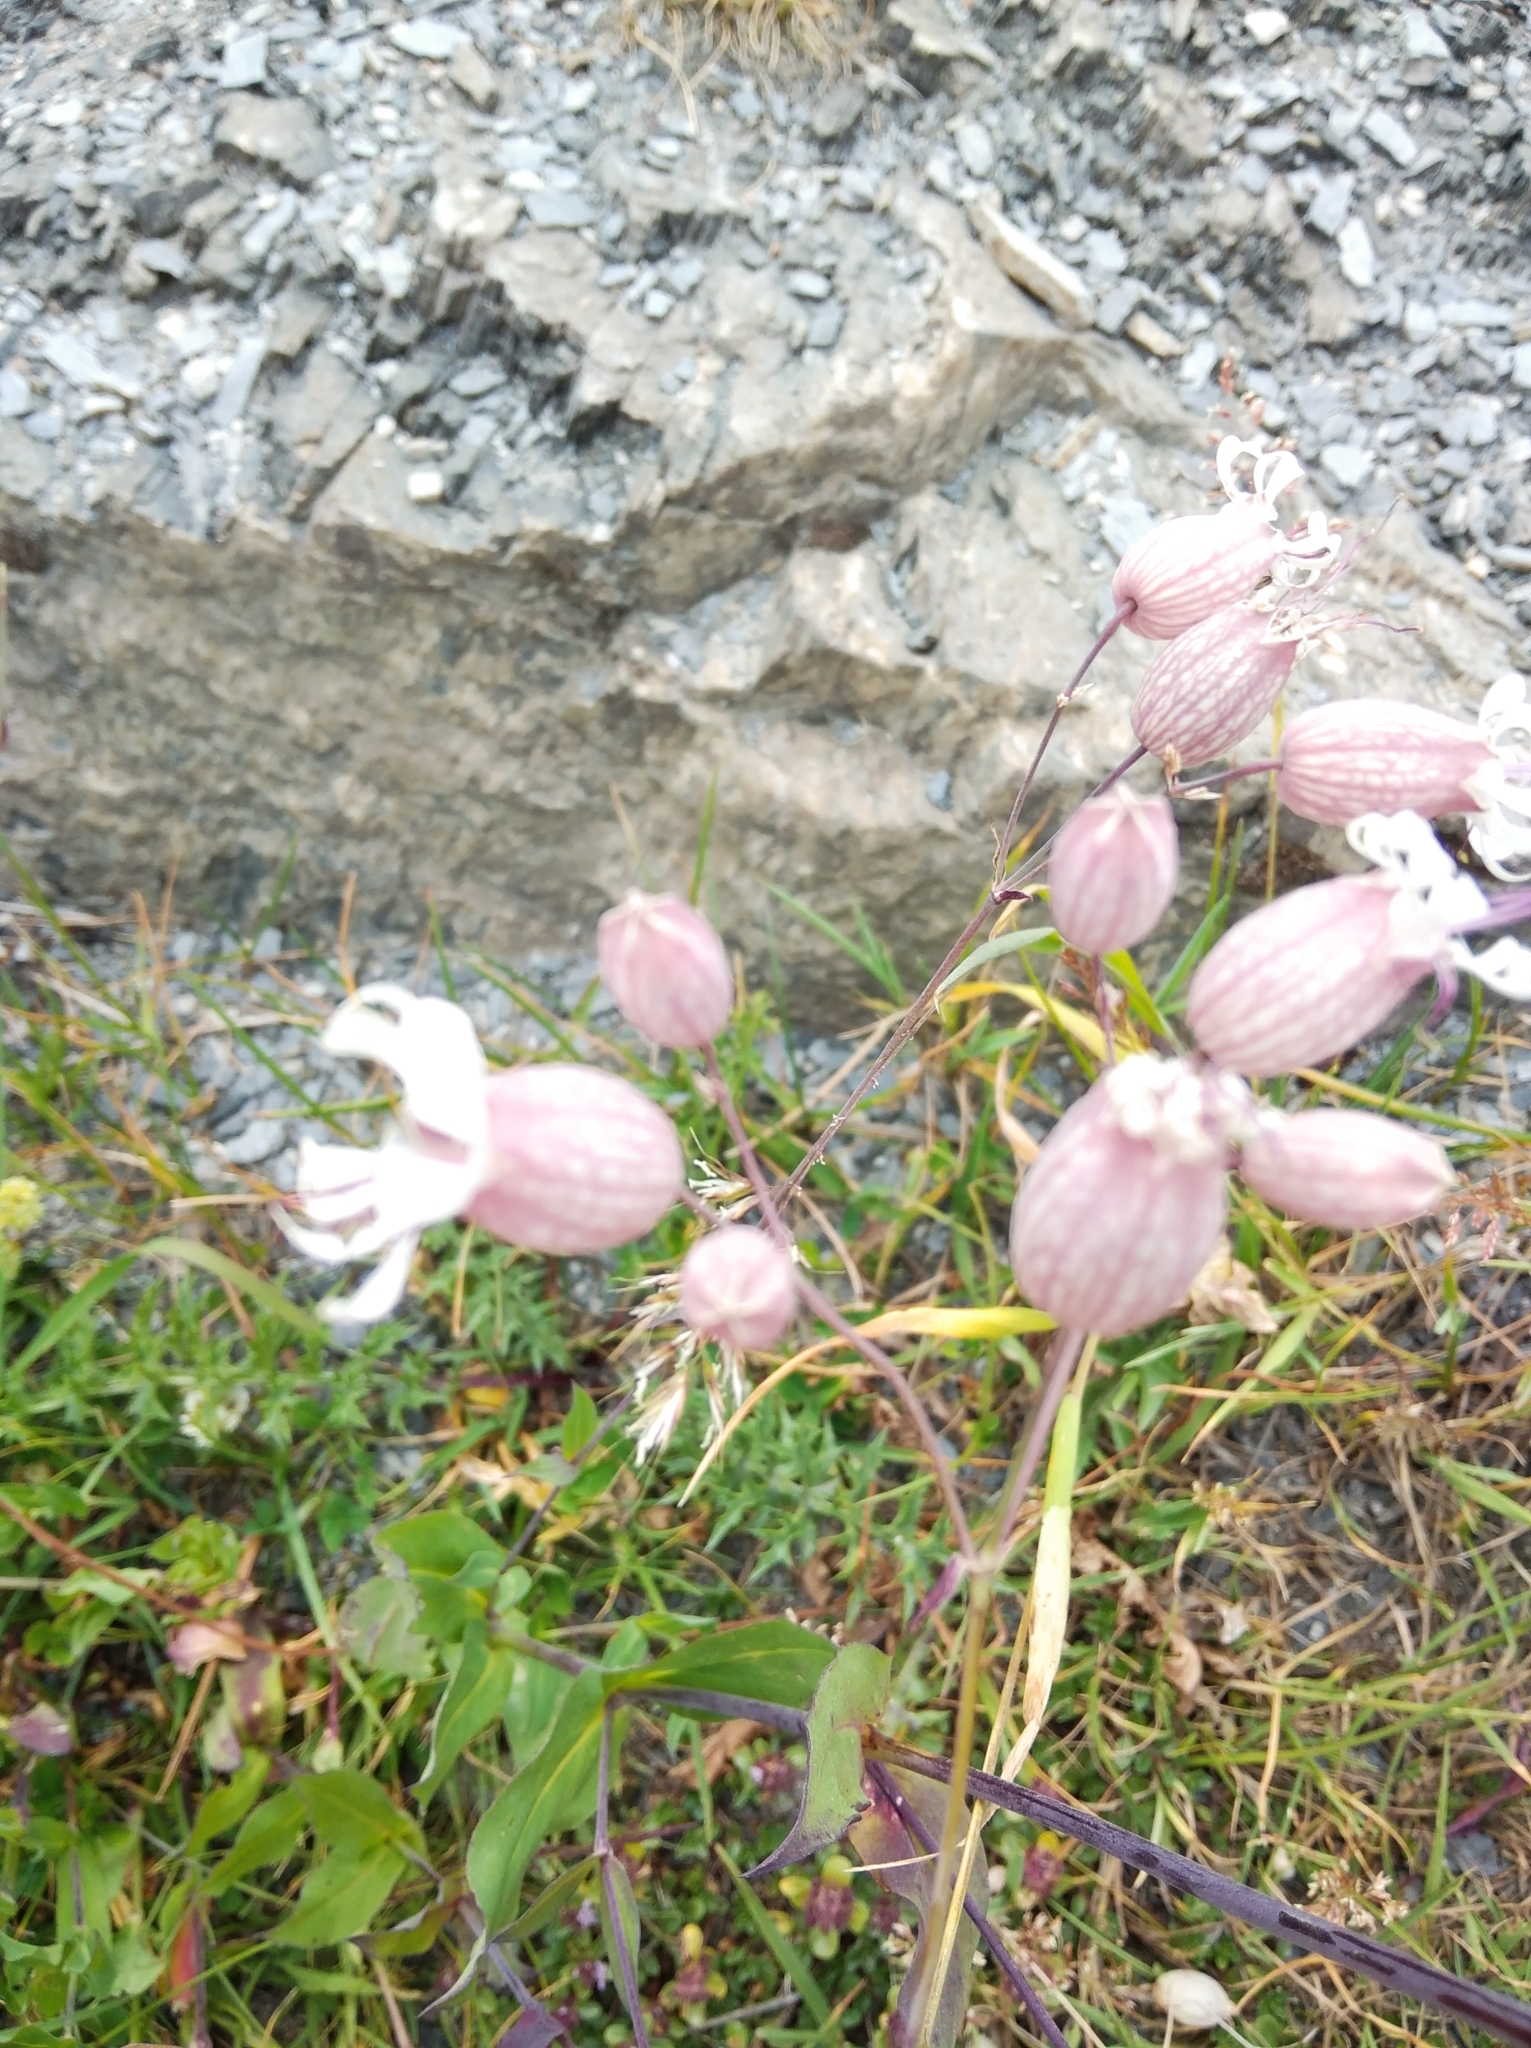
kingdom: Plantae
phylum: Tracheophyta
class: Magnoliopsida
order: Caryophyllales
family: Caryophyllaceae
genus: Silene
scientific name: Silene vulgaris
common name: Bladder campion
